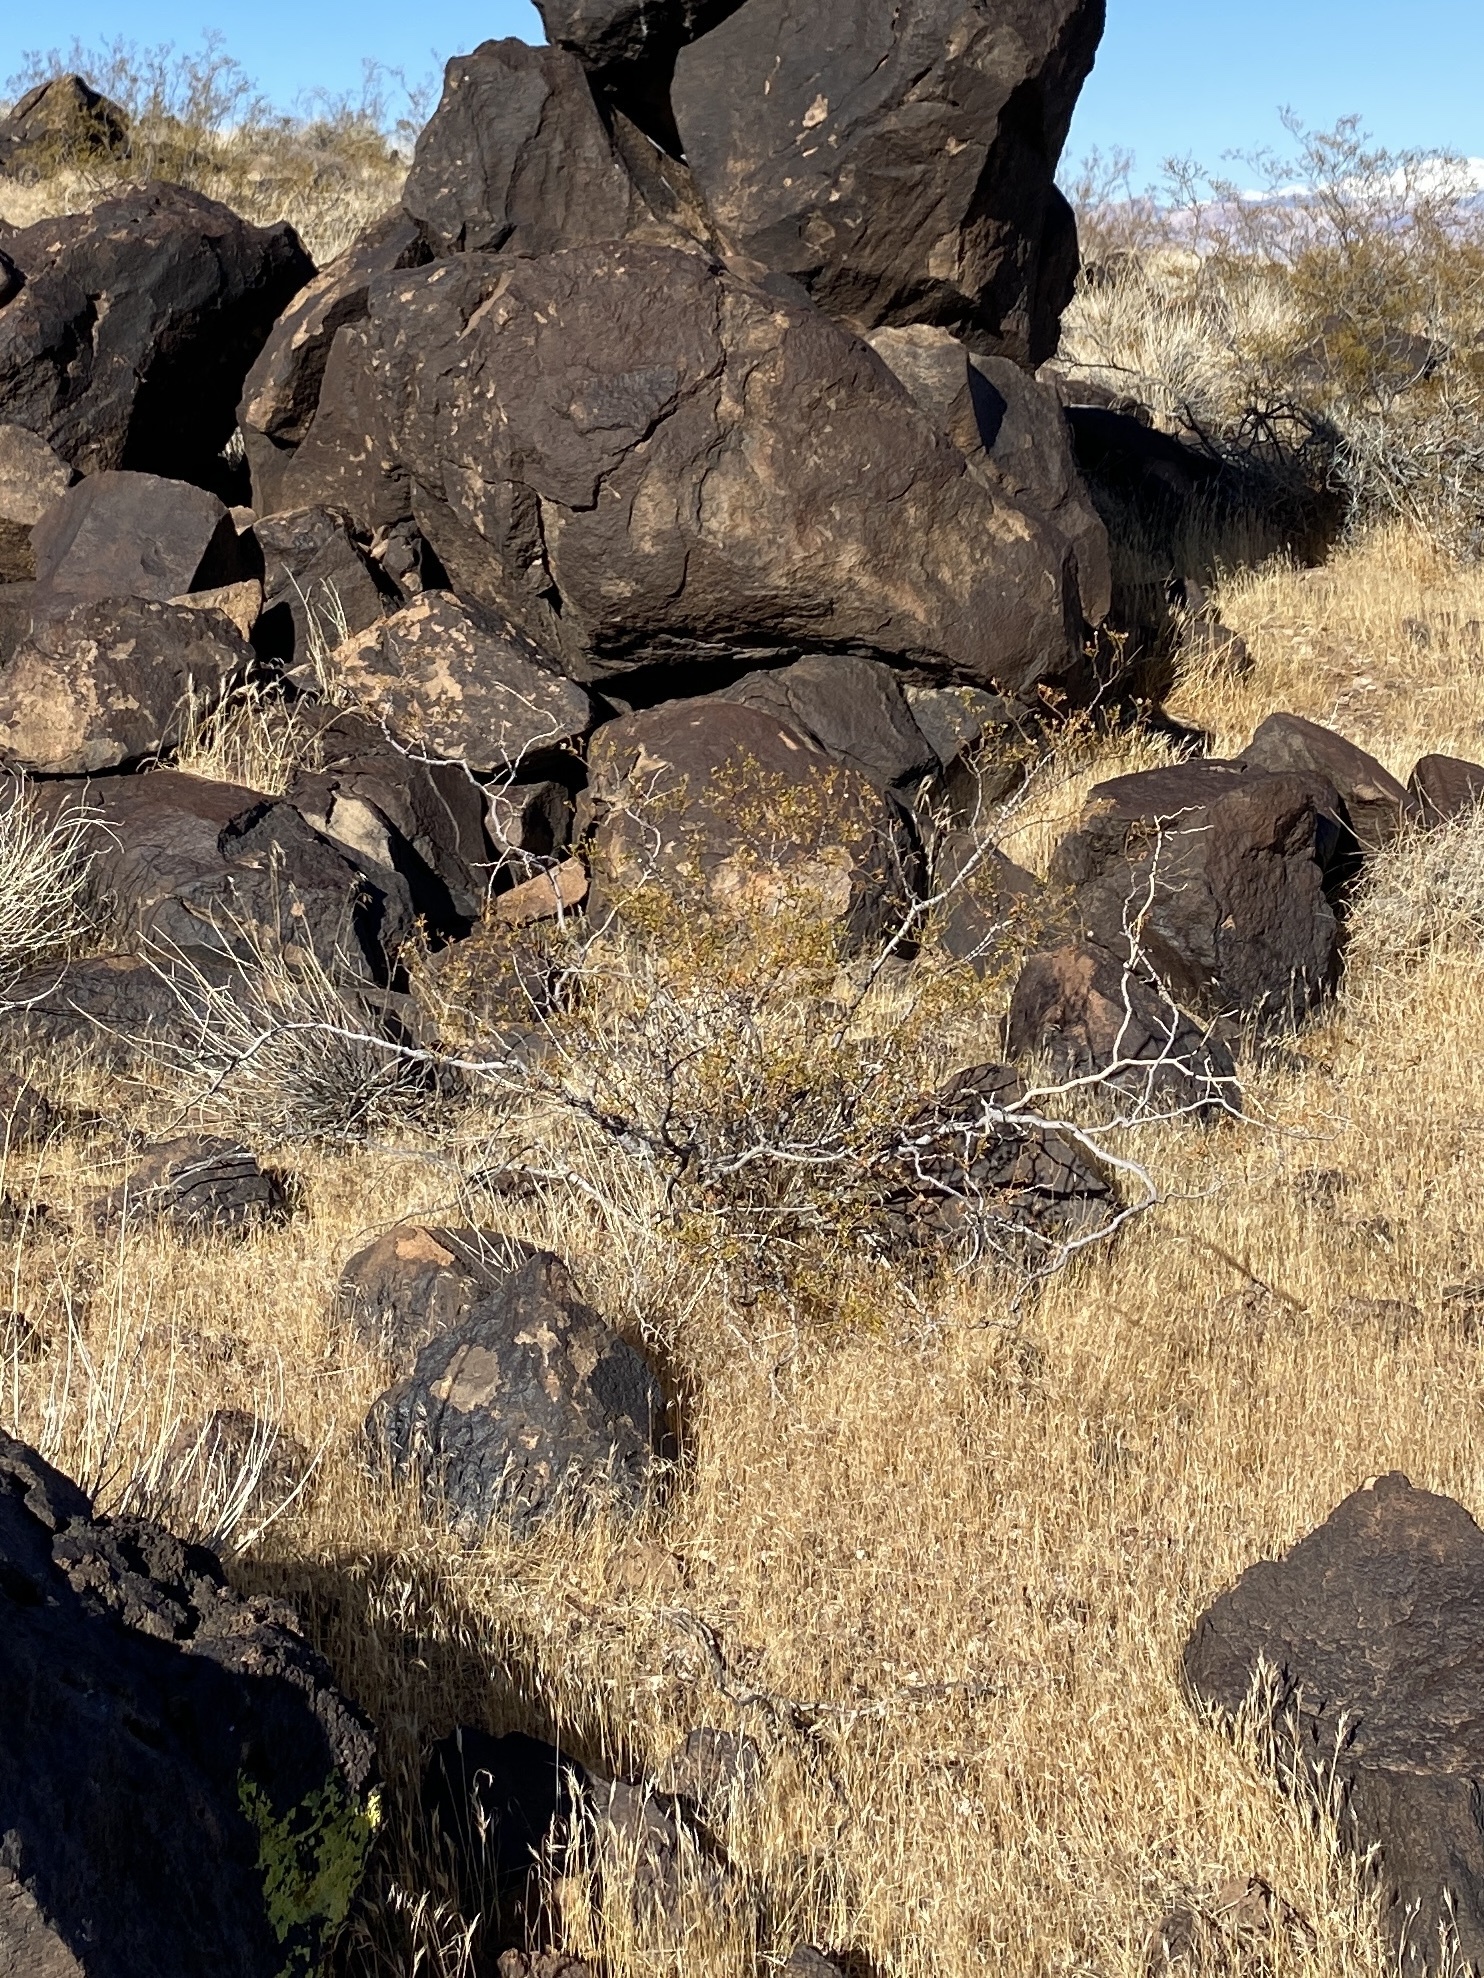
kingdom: Plantae
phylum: Tracheophyta
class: Magnoliopsida
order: Zygophyllales
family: Zygophyllaceae
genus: Larrea
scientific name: Larrea tridentata
